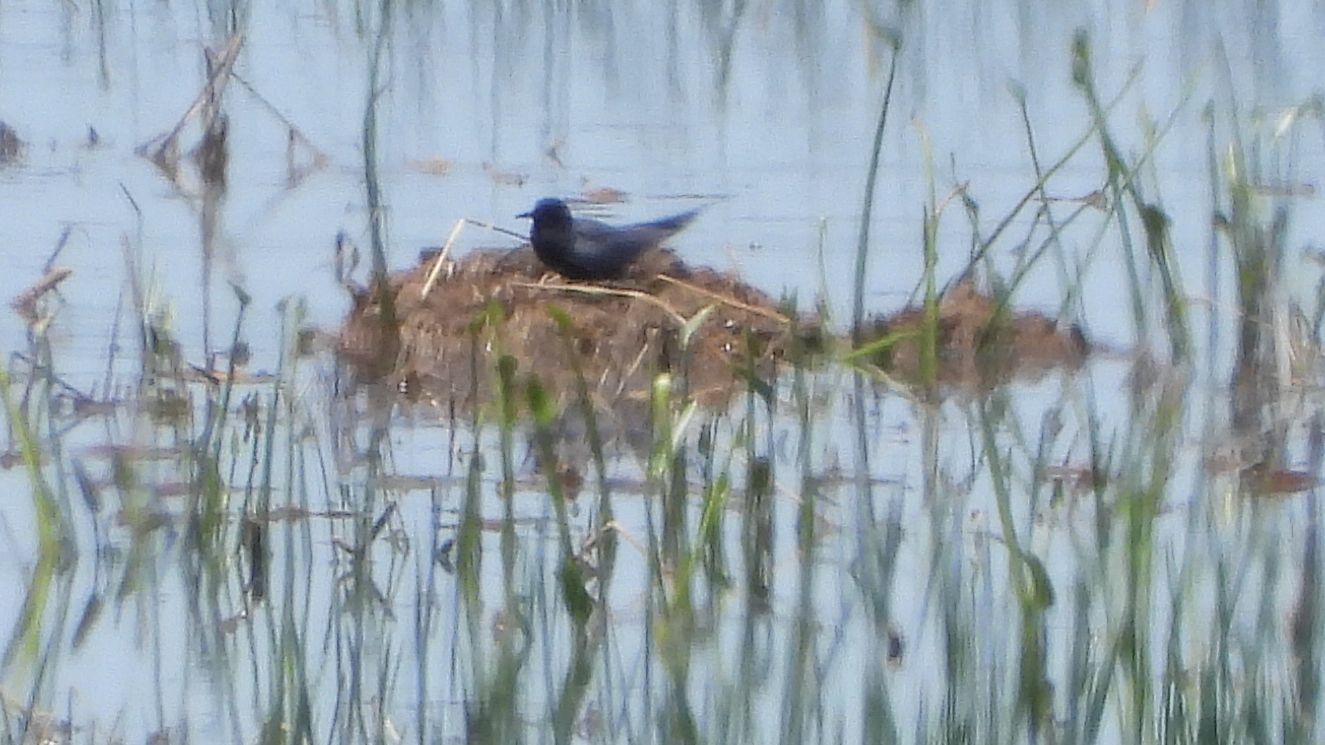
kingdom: Animalia
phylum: Chordata
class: Aves
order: Charadriiformes
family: Laridae
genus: Chlidonias
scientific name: Chlidonias niger
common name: Black tern
